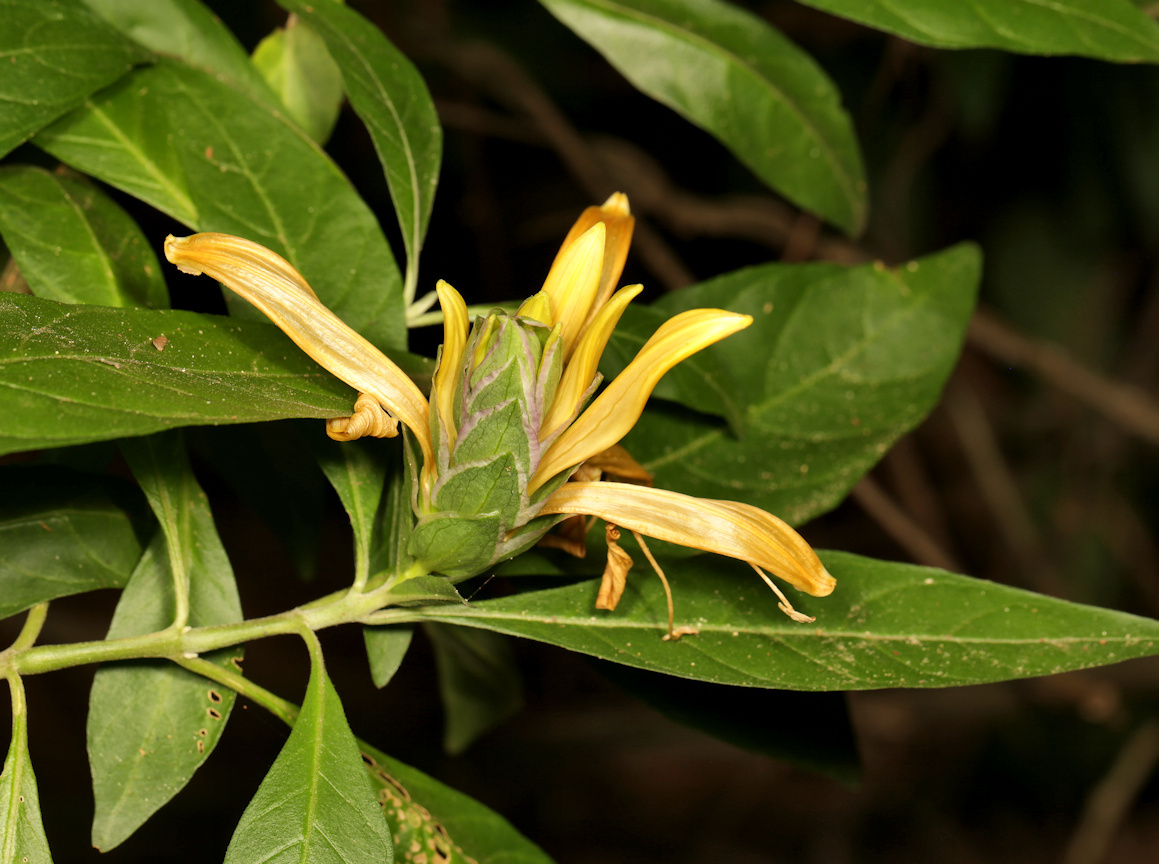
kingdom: Plantae
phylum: Tracheophyta
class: Magnoliopsida
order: Lamiales
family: Acanthaceae
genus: Metarungia
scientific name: Metarungia longistrobus
